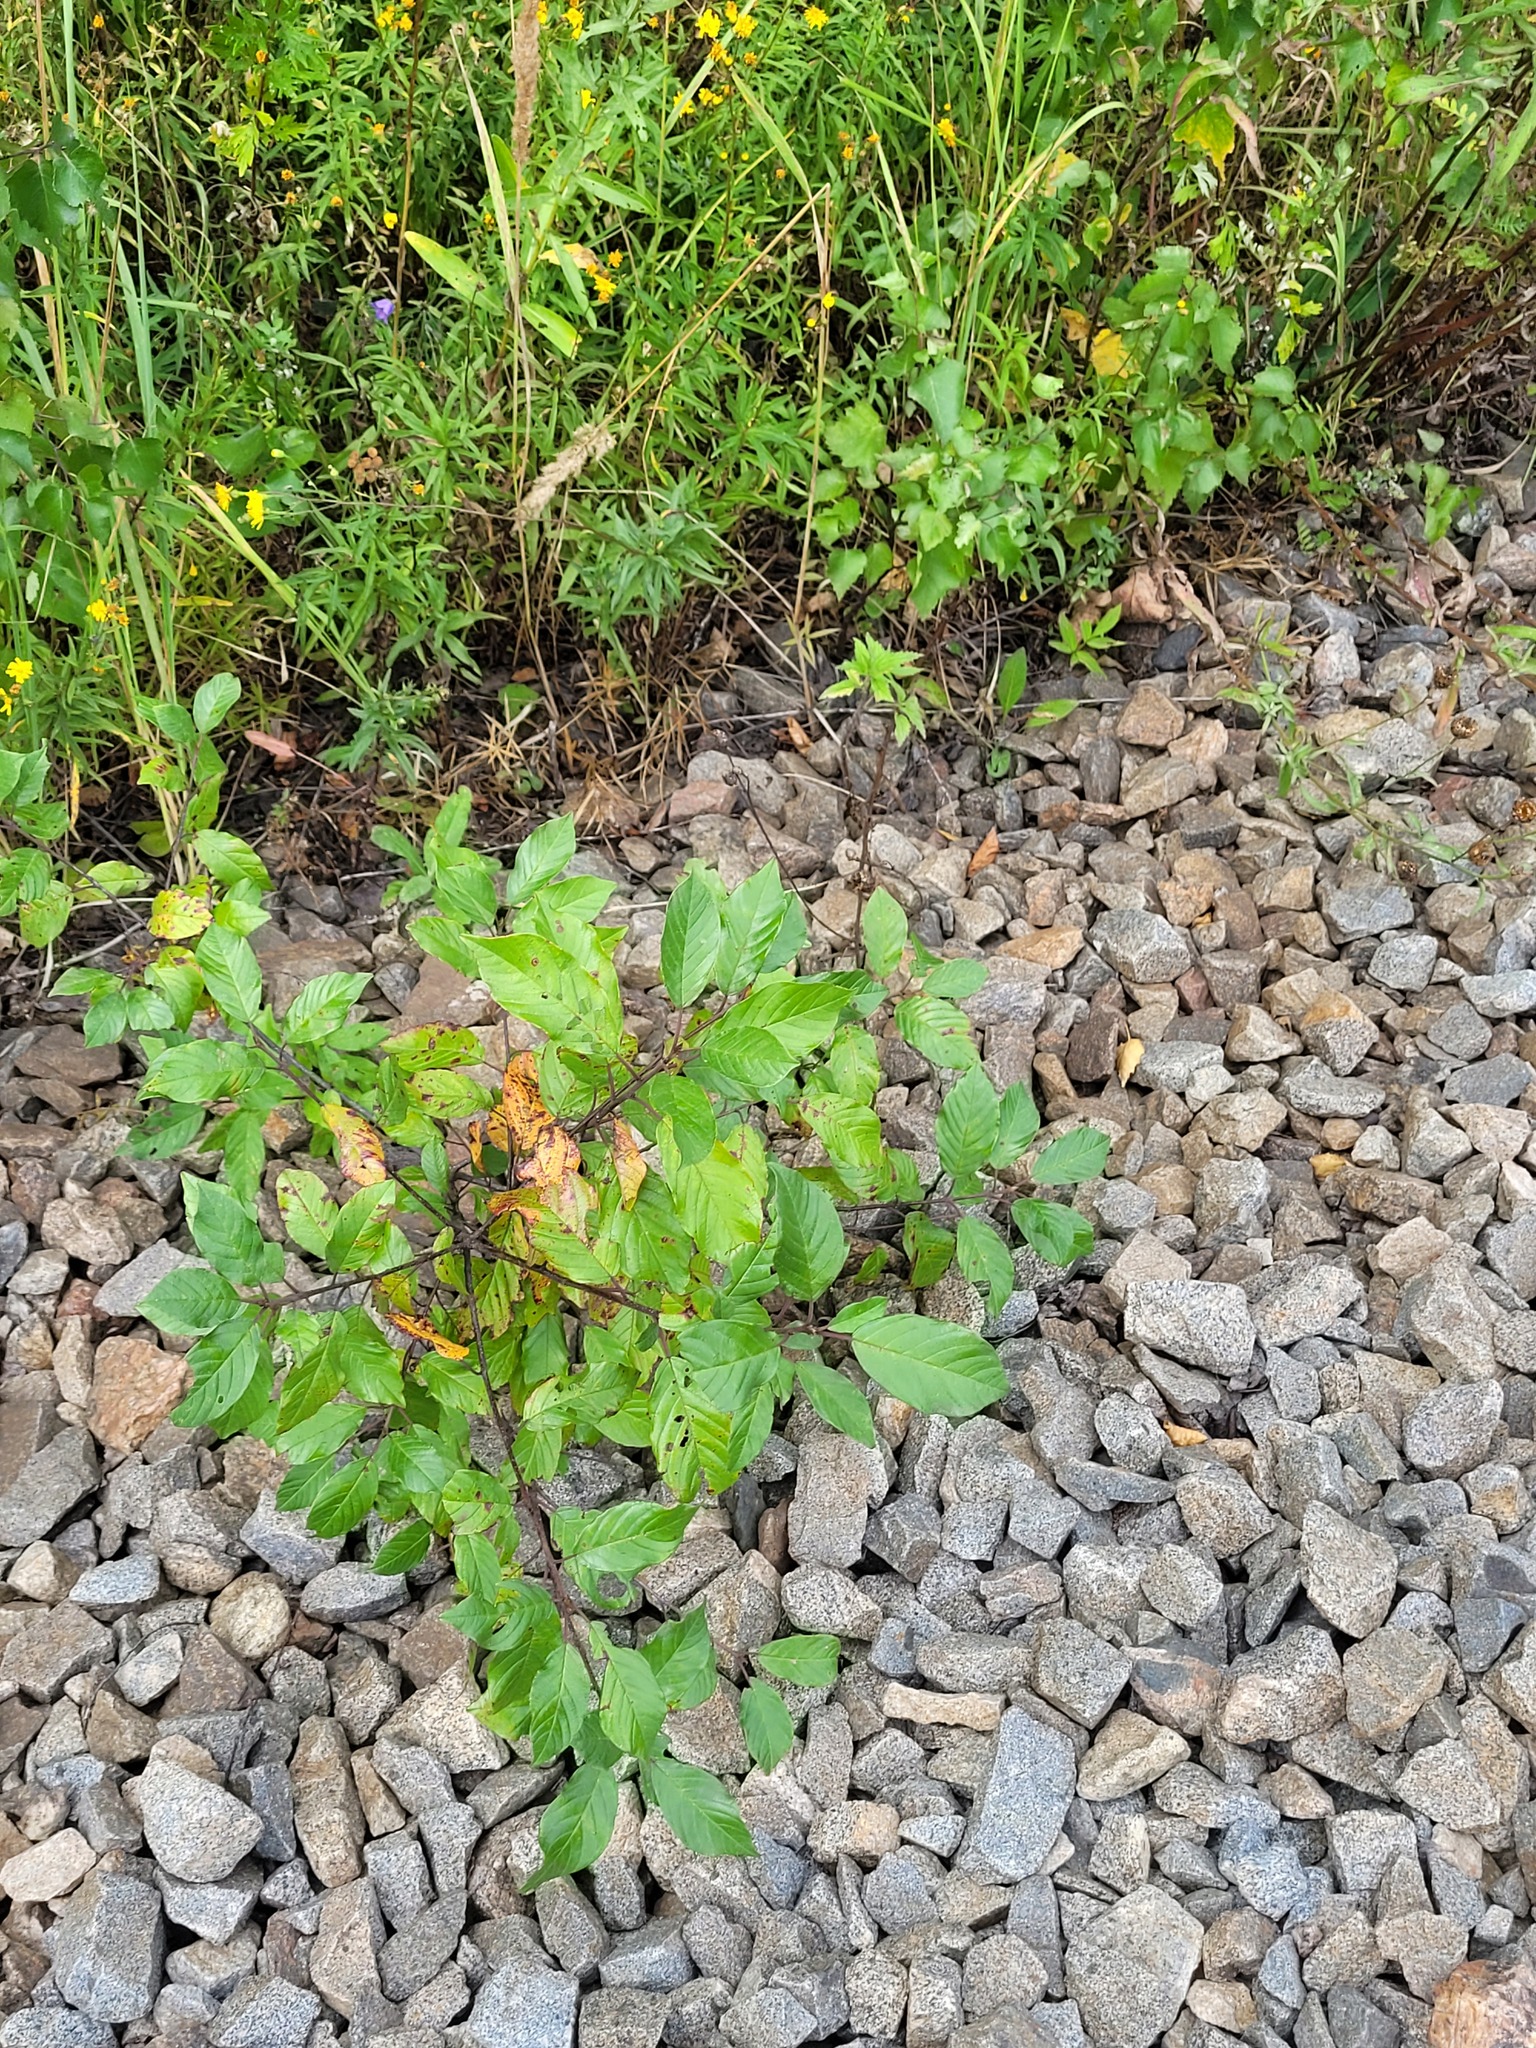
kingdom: Plantae
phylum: Tracheophyta
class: Magnoliopsida
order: Rosales
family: Rhamnaceae
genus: Frangula
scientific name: Frangula alnus
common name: Alder buckthorn
